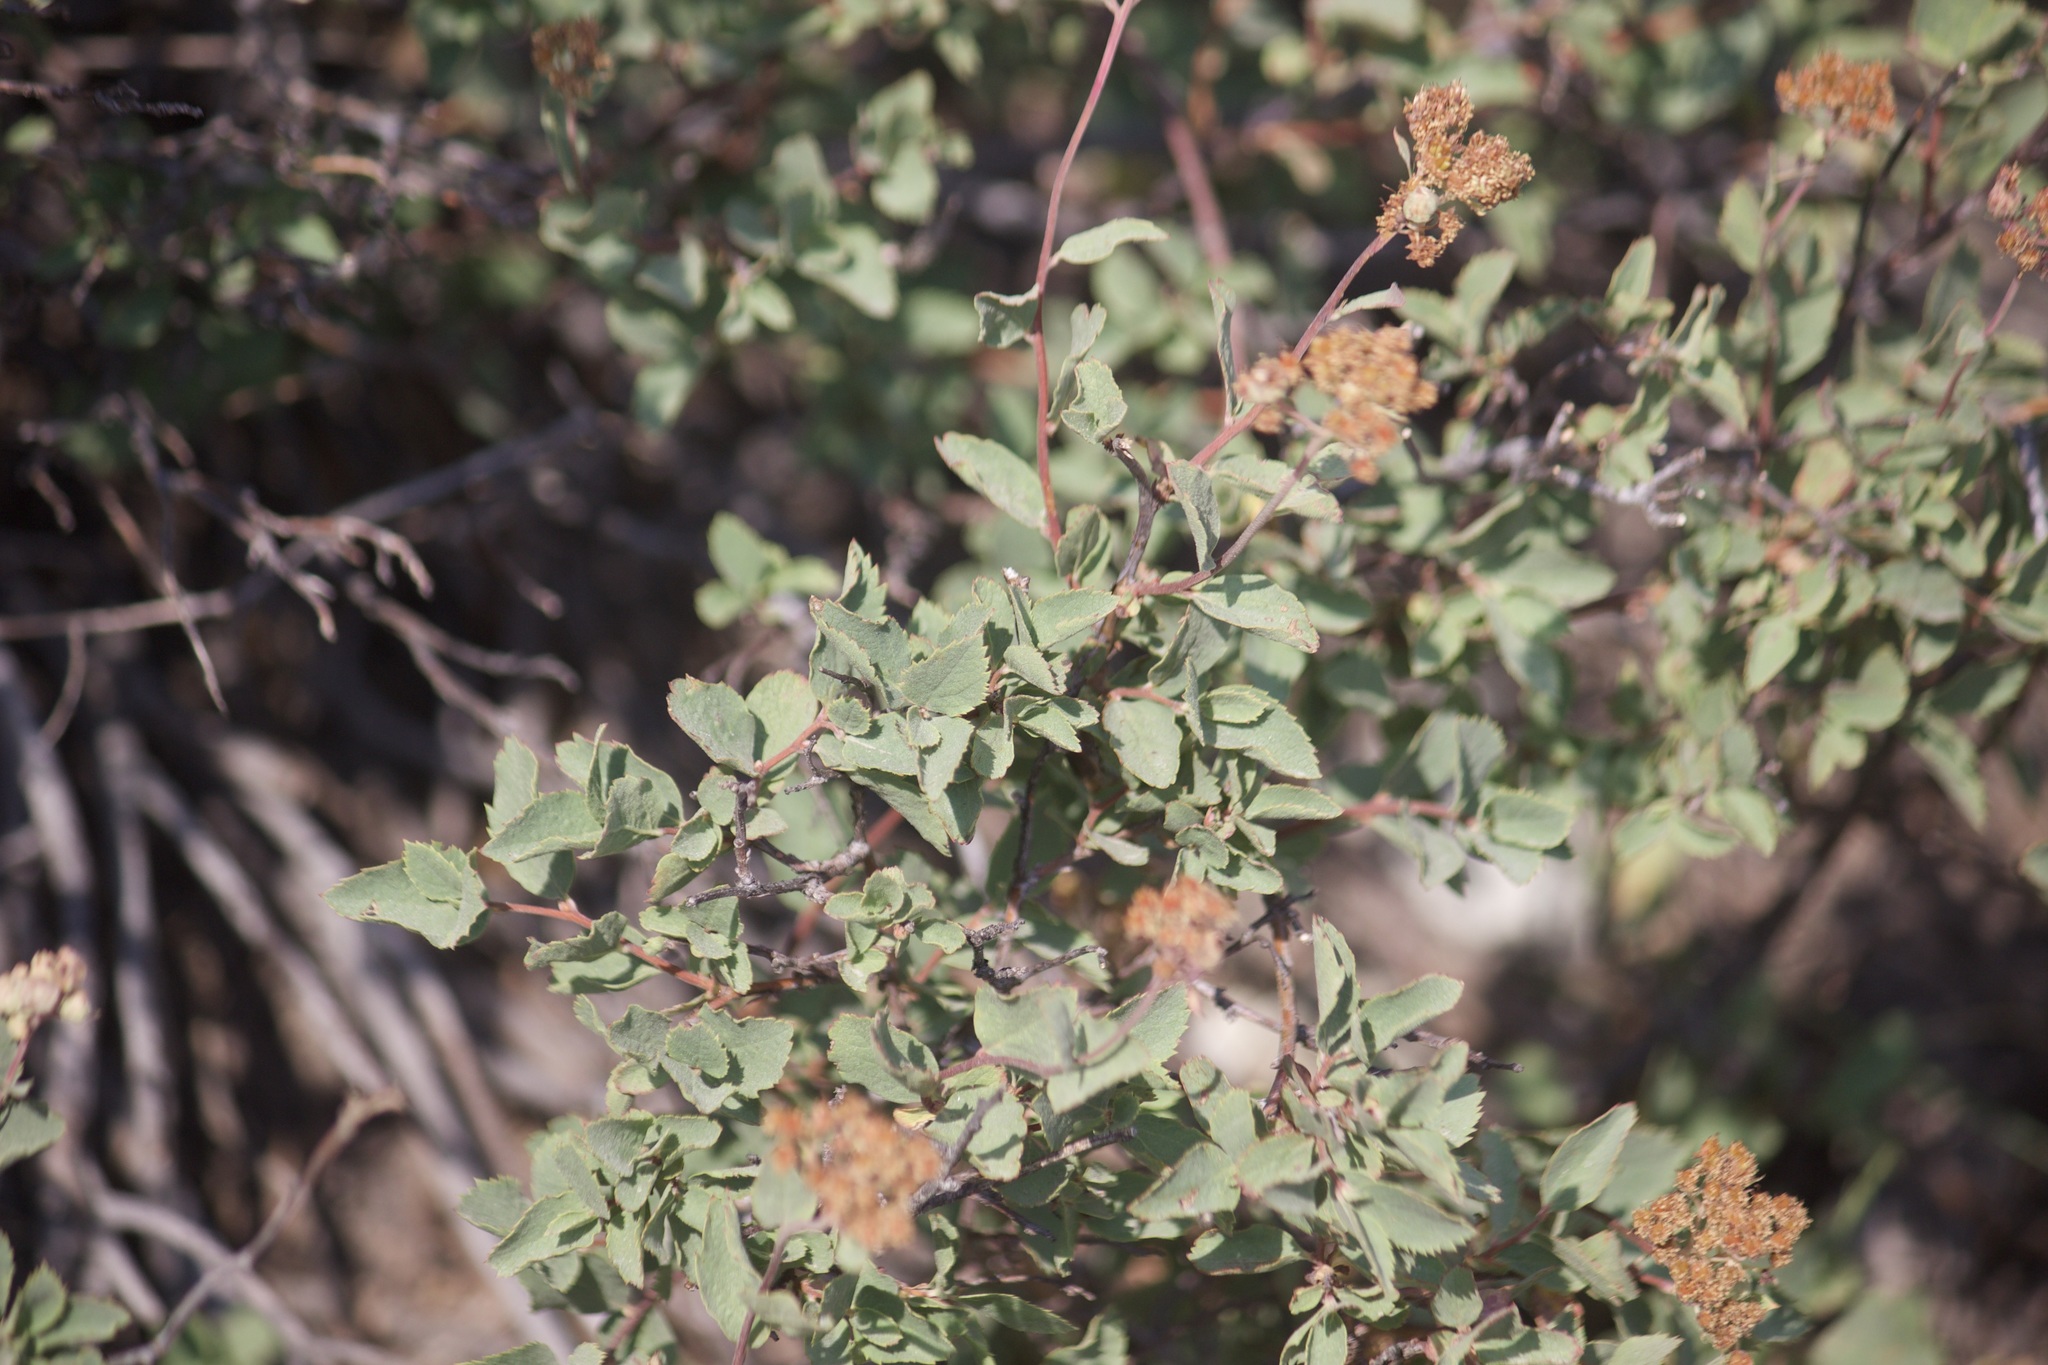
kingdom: Plantae
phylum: Tracheophyta
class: Magnoliopsida
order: Rosales
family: Rosaceae
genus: Spiraea
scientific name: Spiraea splendens
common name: Subalpine meadowsweet
